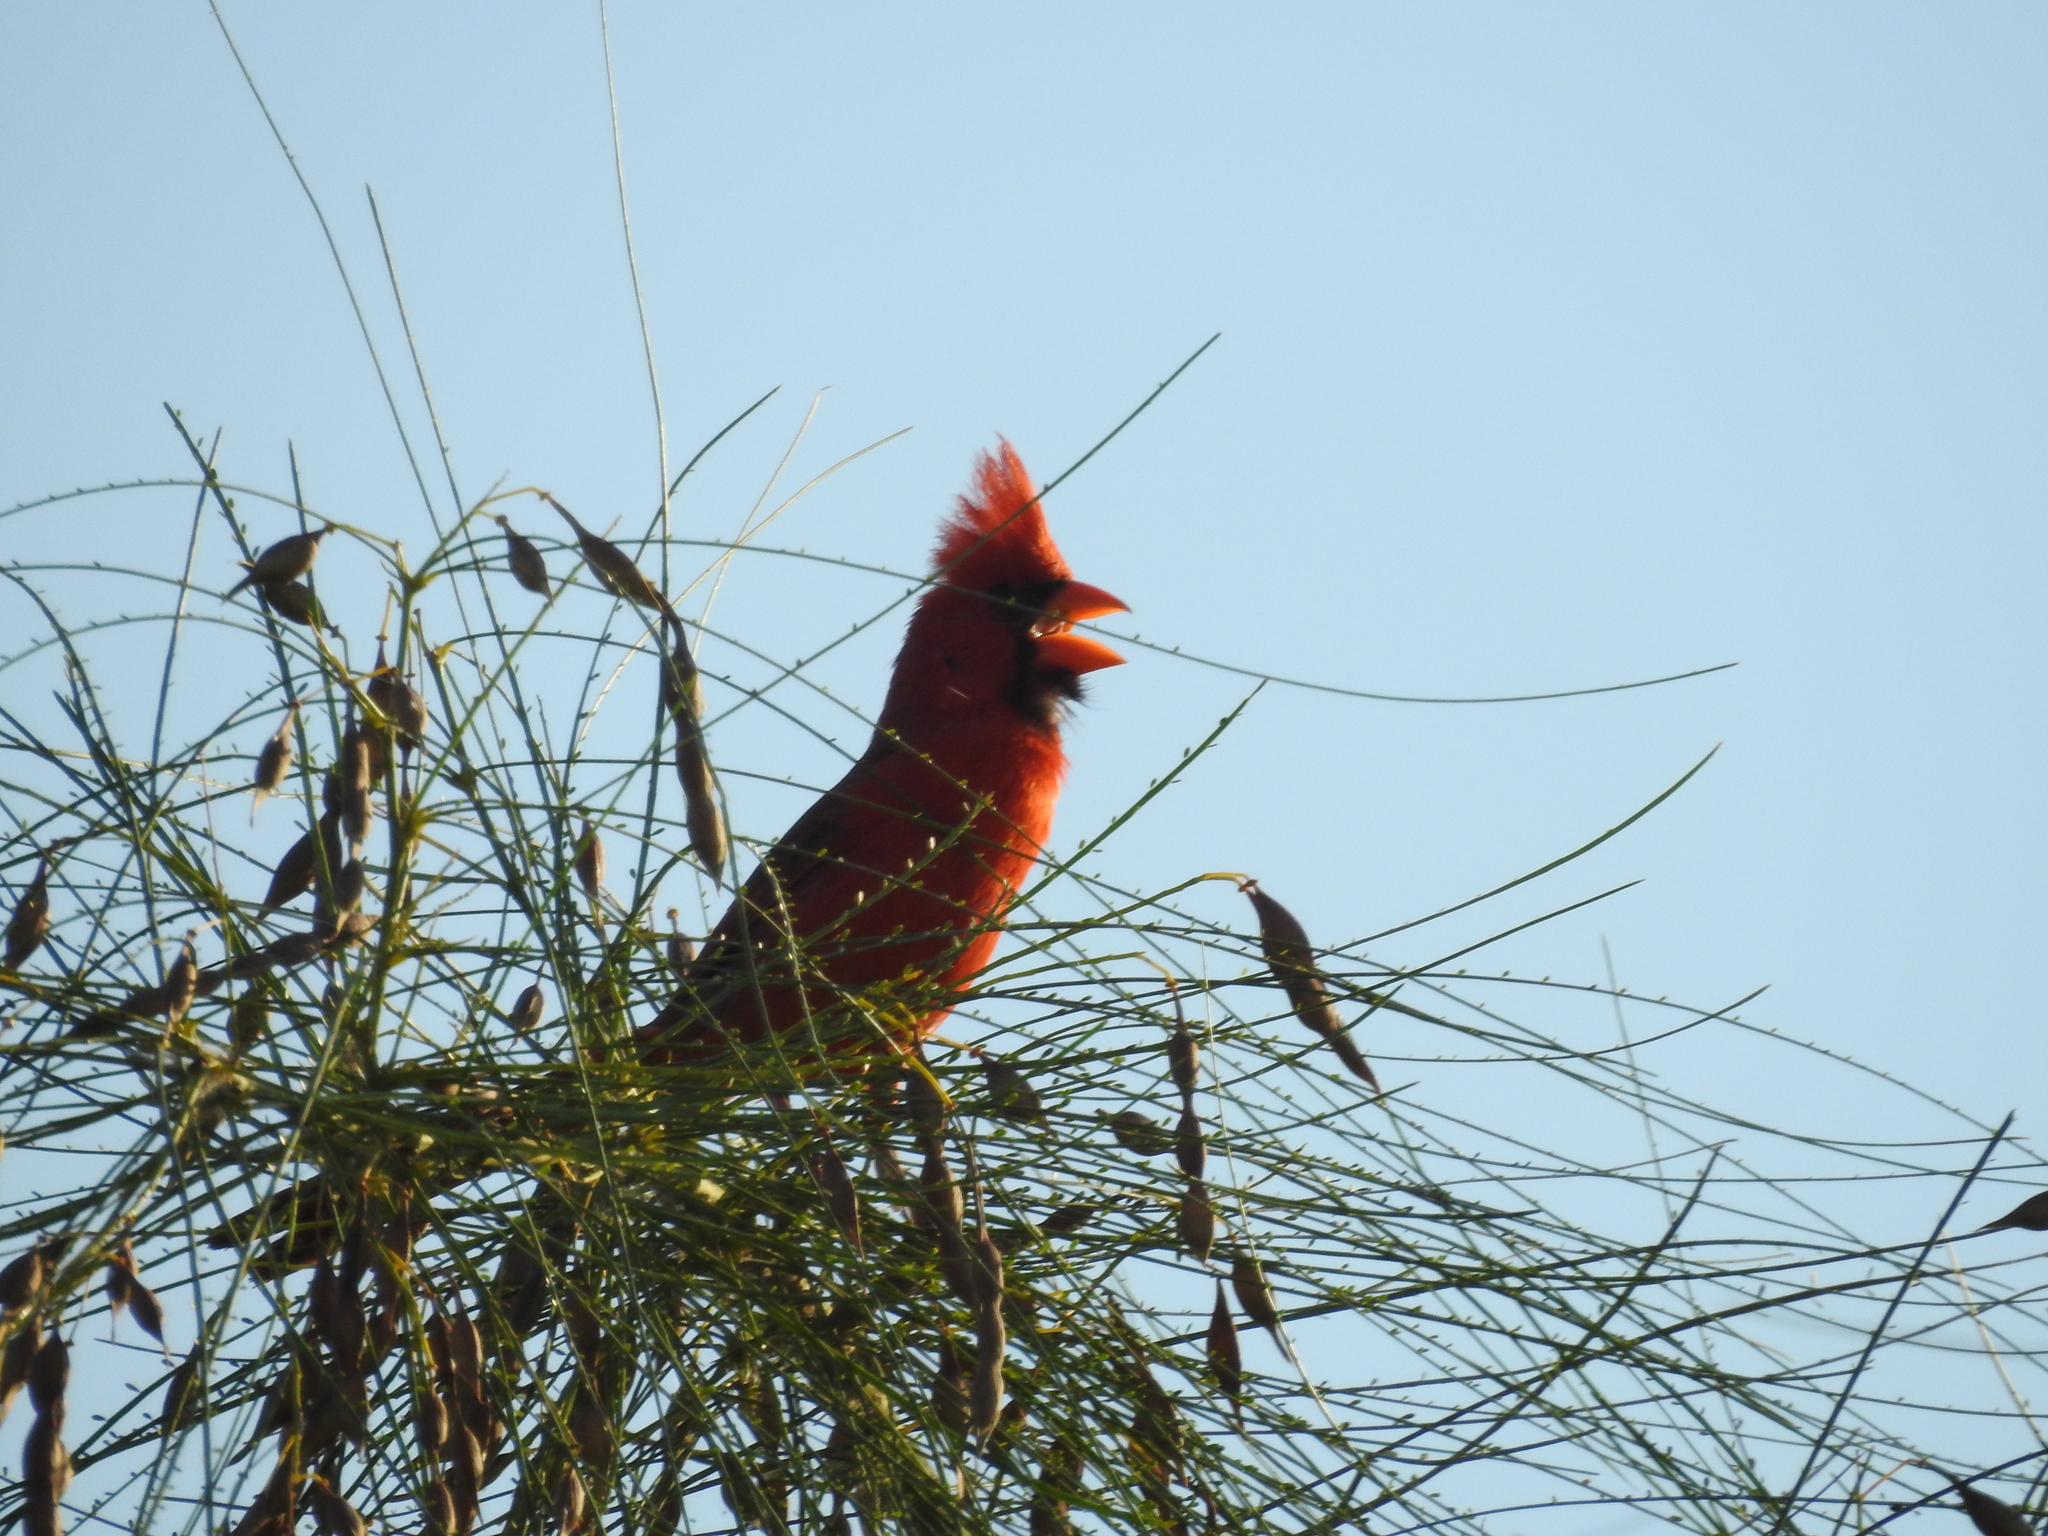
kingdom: Animalia
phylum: Chordata
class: Aves
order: Passeriformes
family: Cardinalidae
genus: Cardinalis
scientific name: Cardinalis cardinalis
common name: Northern cardinal
